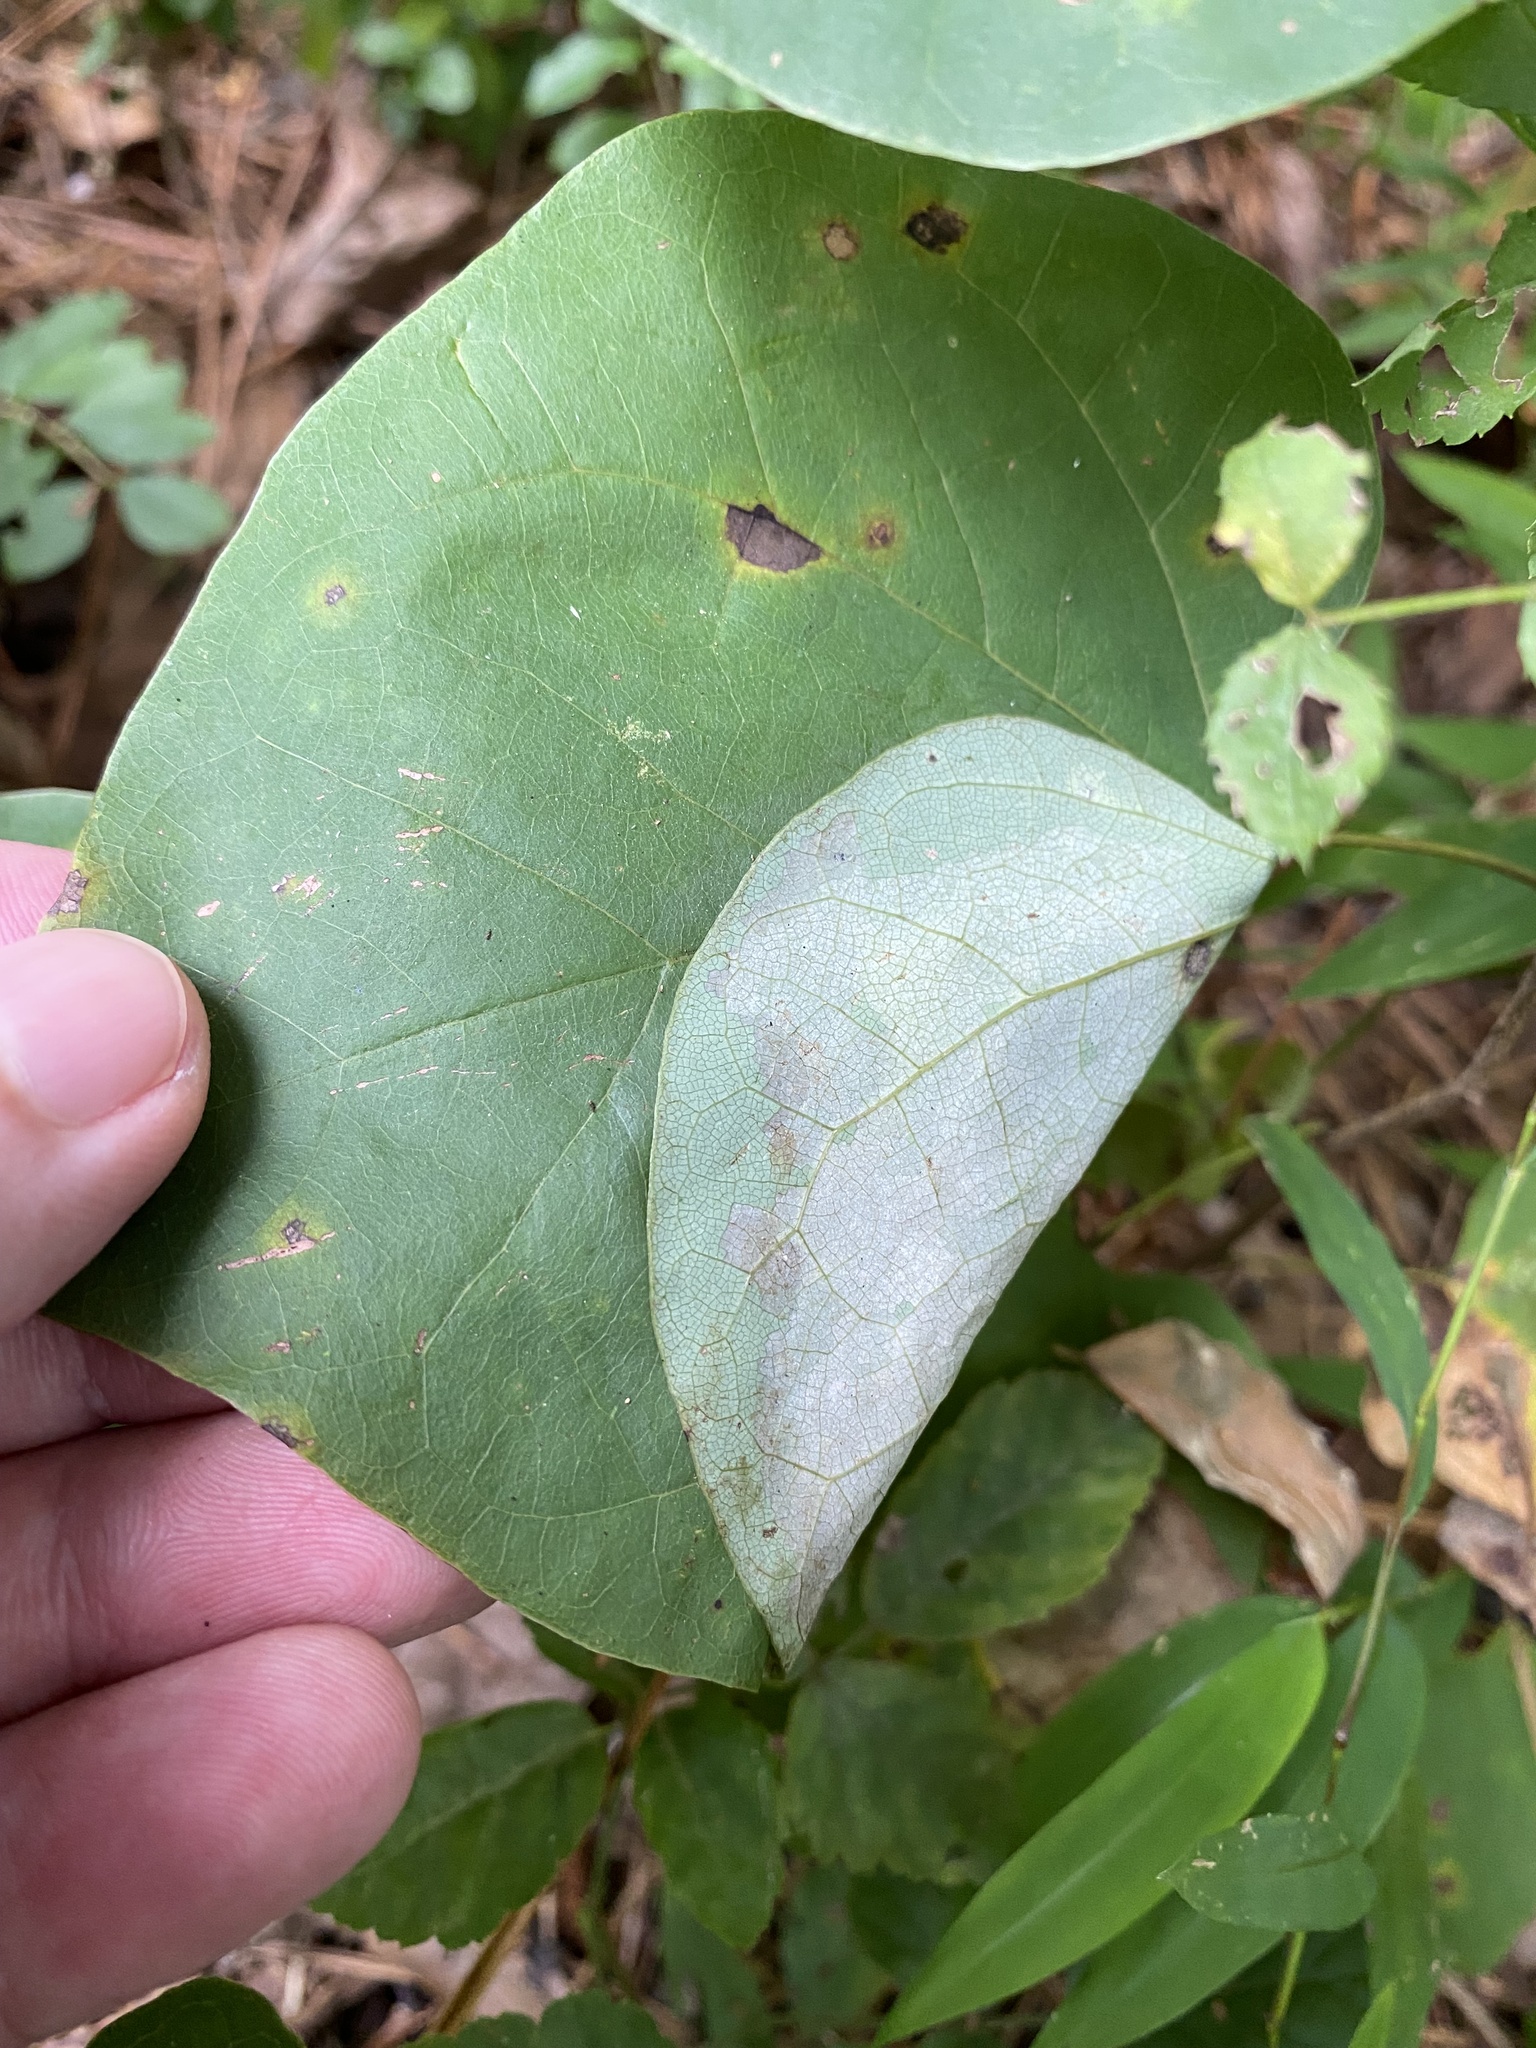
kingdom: Animalia
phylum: Arthropoda
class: Insecta
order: Lepidoptera
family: Gelechiidae
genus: Fascista
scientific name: Fascista cercerisella
